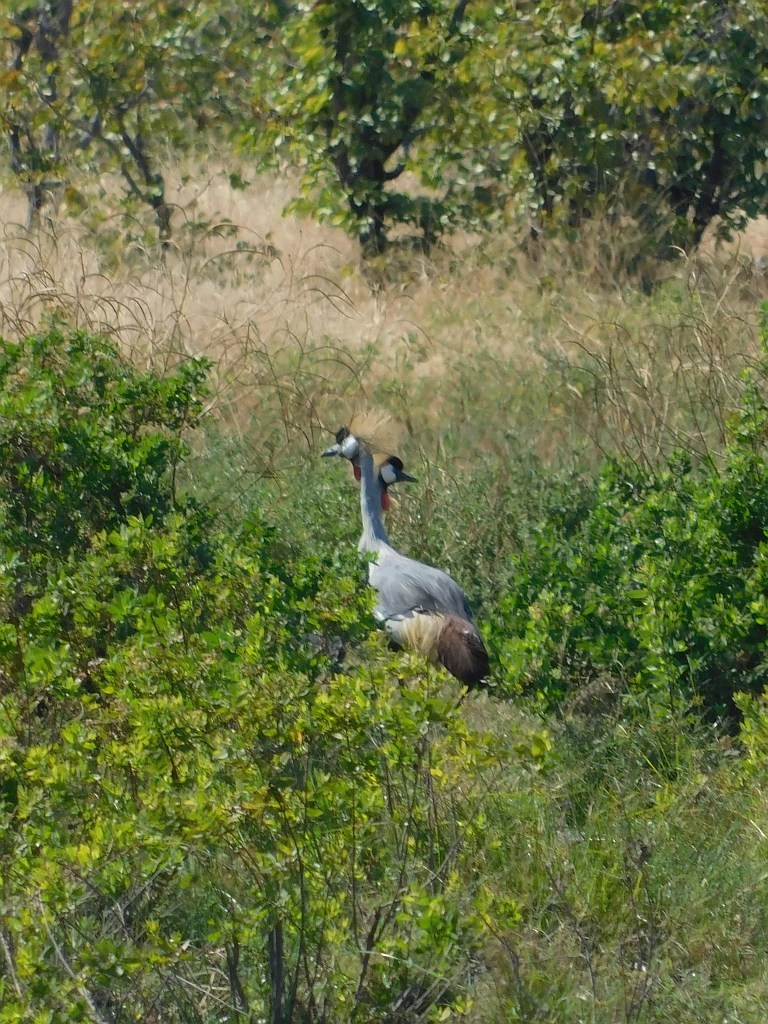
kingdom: Animalia
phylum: Chordata
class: Aves
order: Gruiformes
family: Gruidae
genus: Balearica
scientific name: Balearica regulorum
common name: Grey crowned crane
